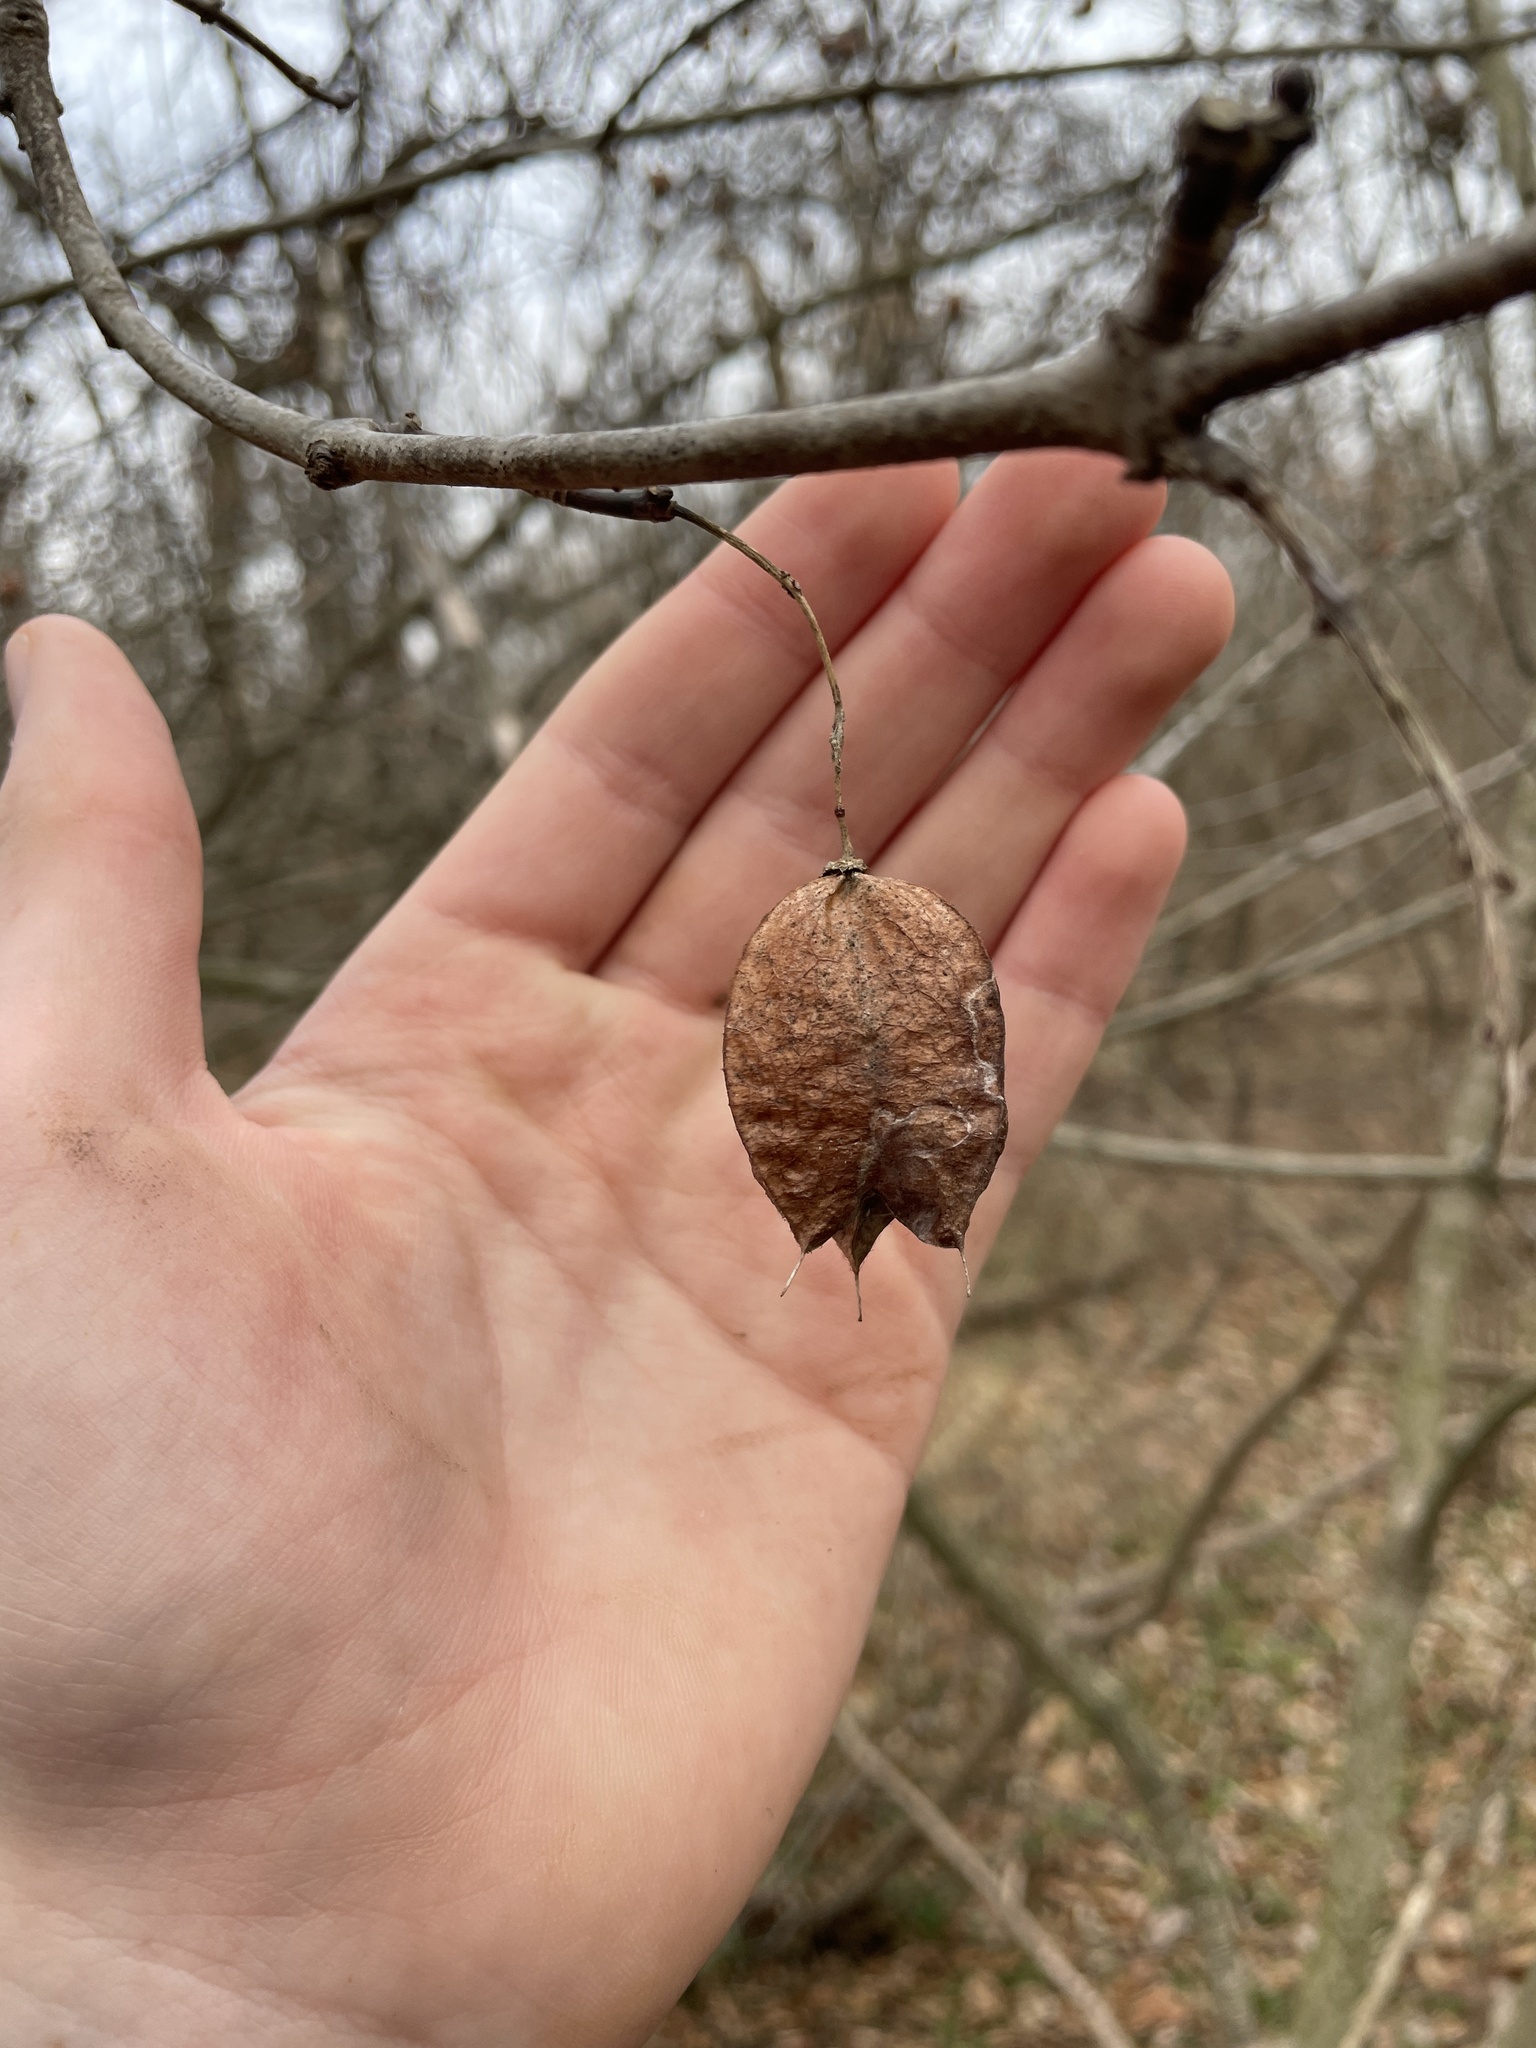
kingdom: Plantae
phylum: Tracheophyta
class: Magnoliopsida
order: Crossosomatales
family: Staphyleaceae
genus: Staphylea
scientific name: Staphylea trifolia
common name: American bladdernut
